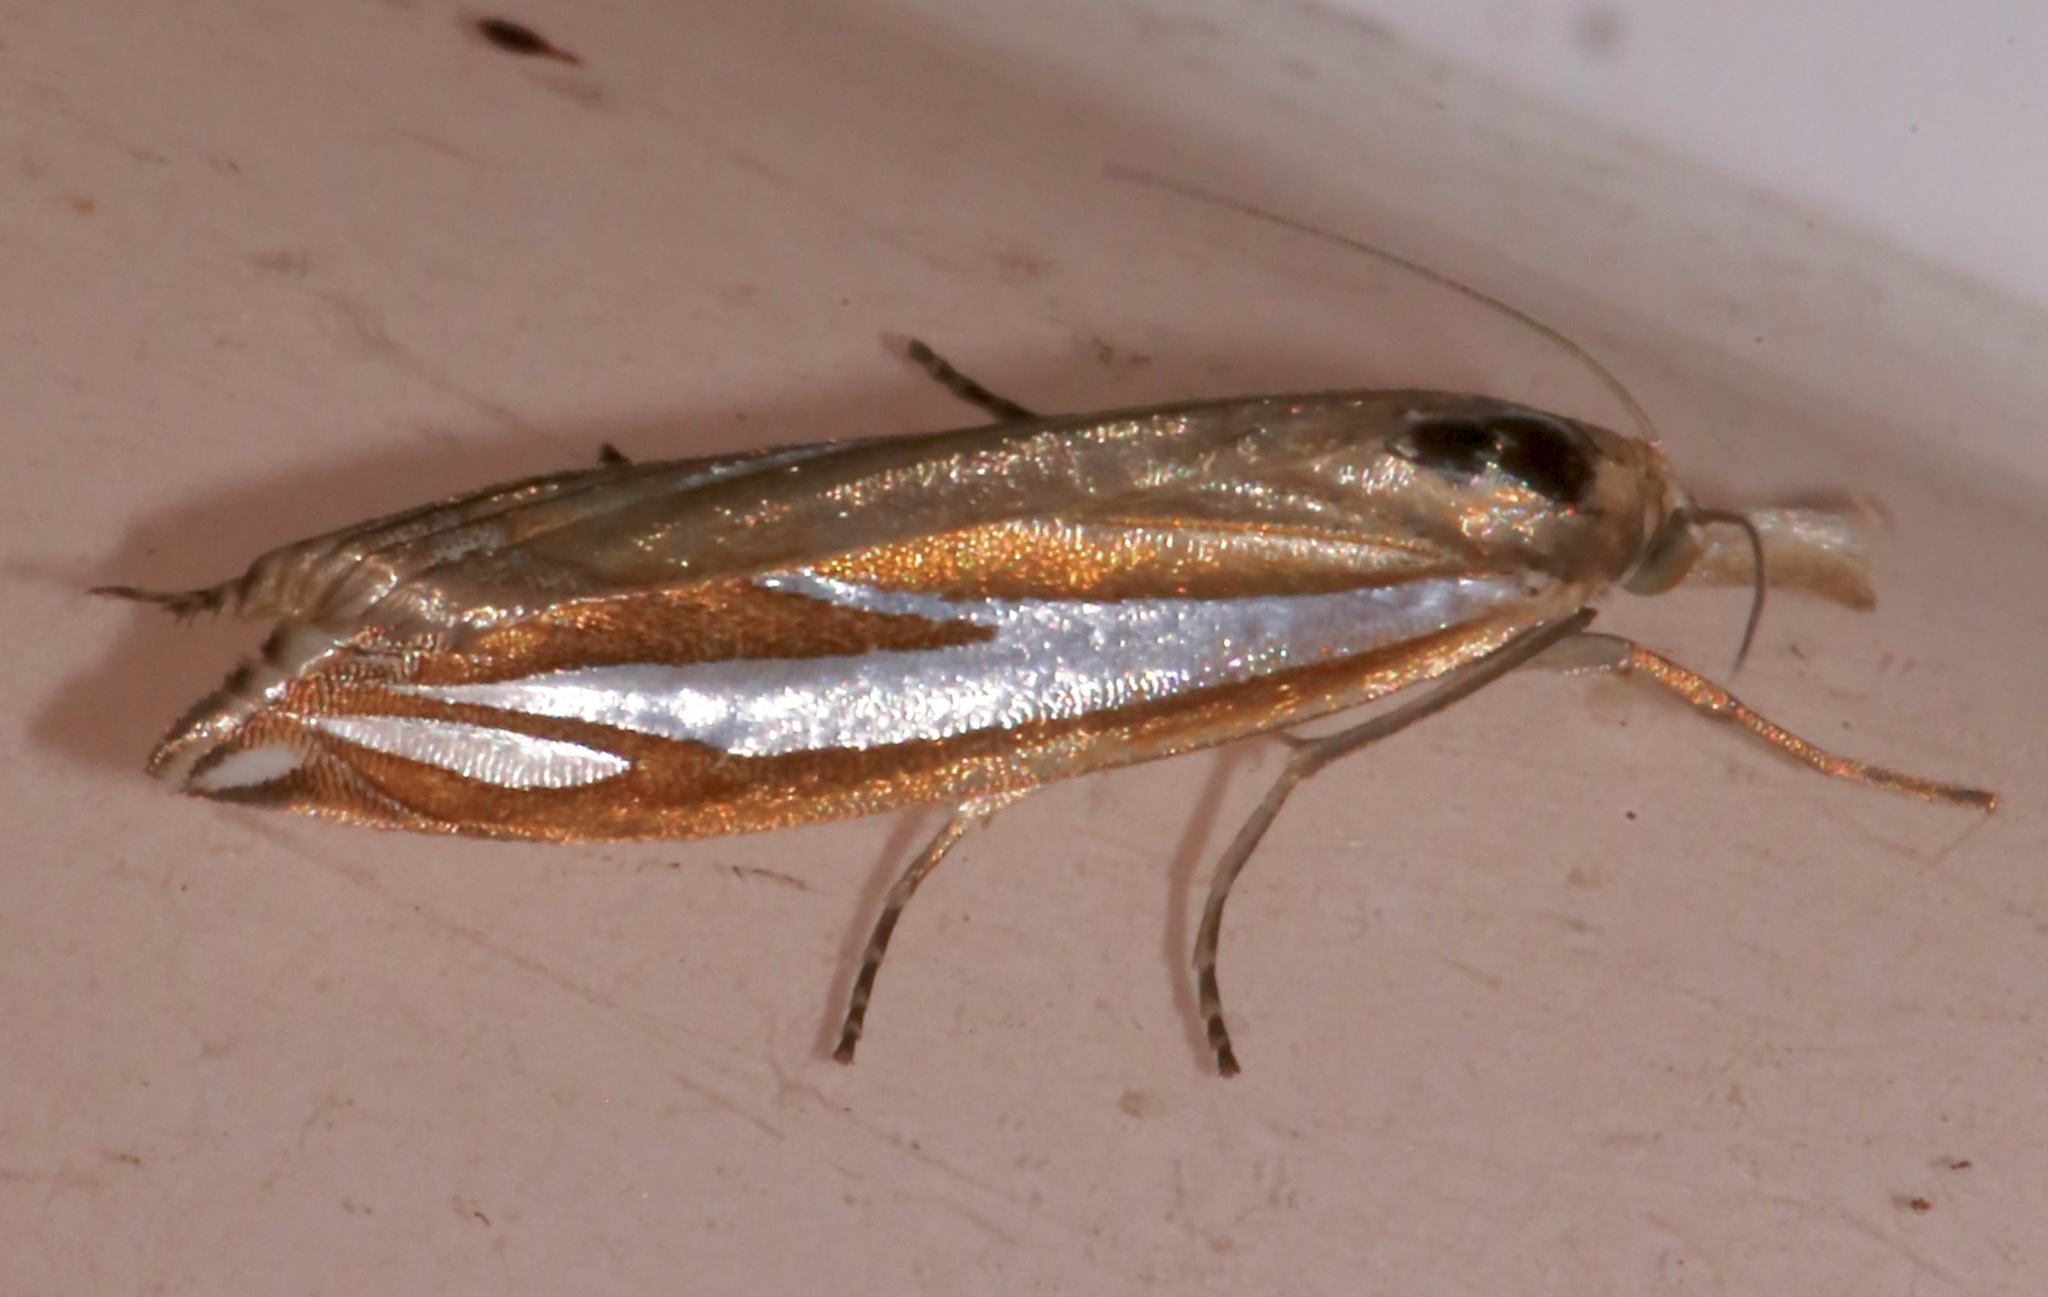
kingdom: Animalia
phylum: Arthropoda
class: Insecta
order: Lepidoptera
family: Crambidae
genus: Crambus
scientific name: Crambus satrapellus
